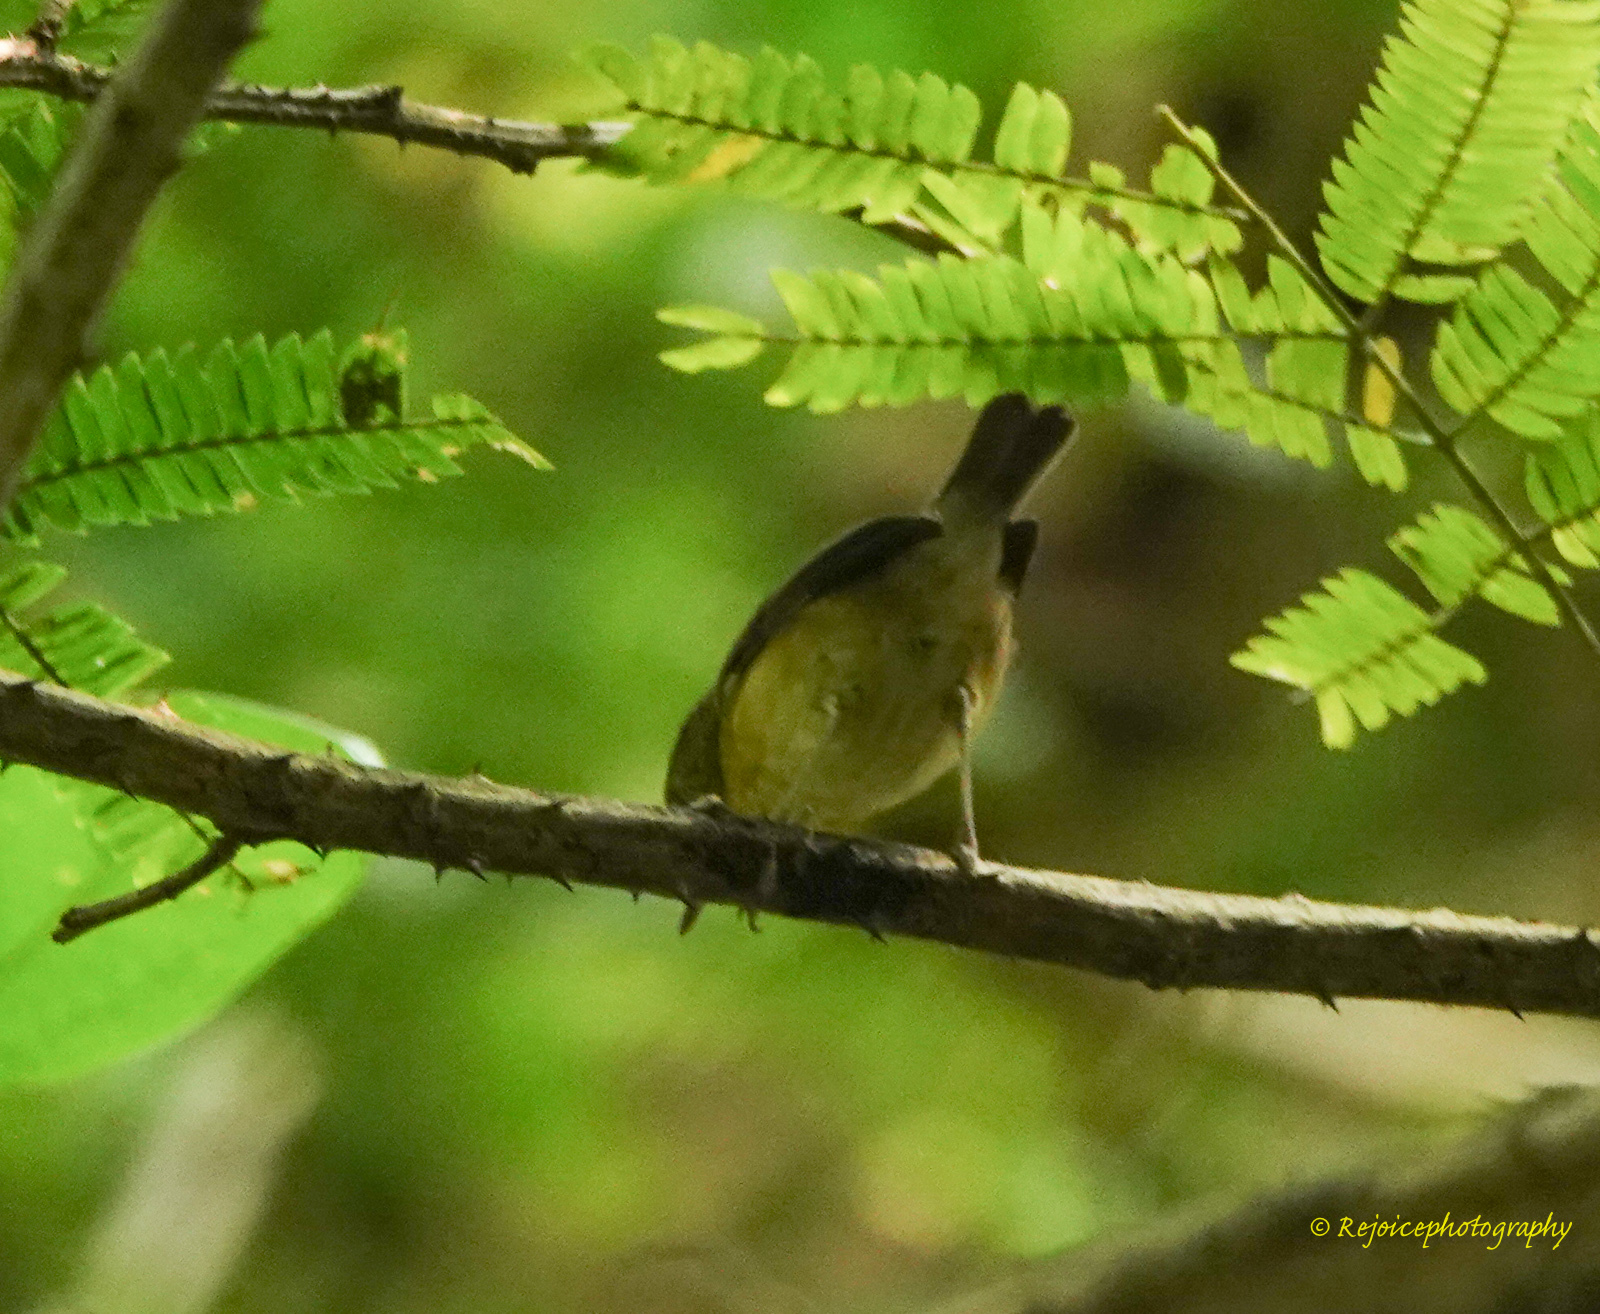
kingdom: Animalia
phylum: Chordata
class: Aves
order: Passeriformes
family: Muscicapidae
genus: Ficedula
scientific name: Ficedula hodgsoni
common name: Pygmy flycatcher
